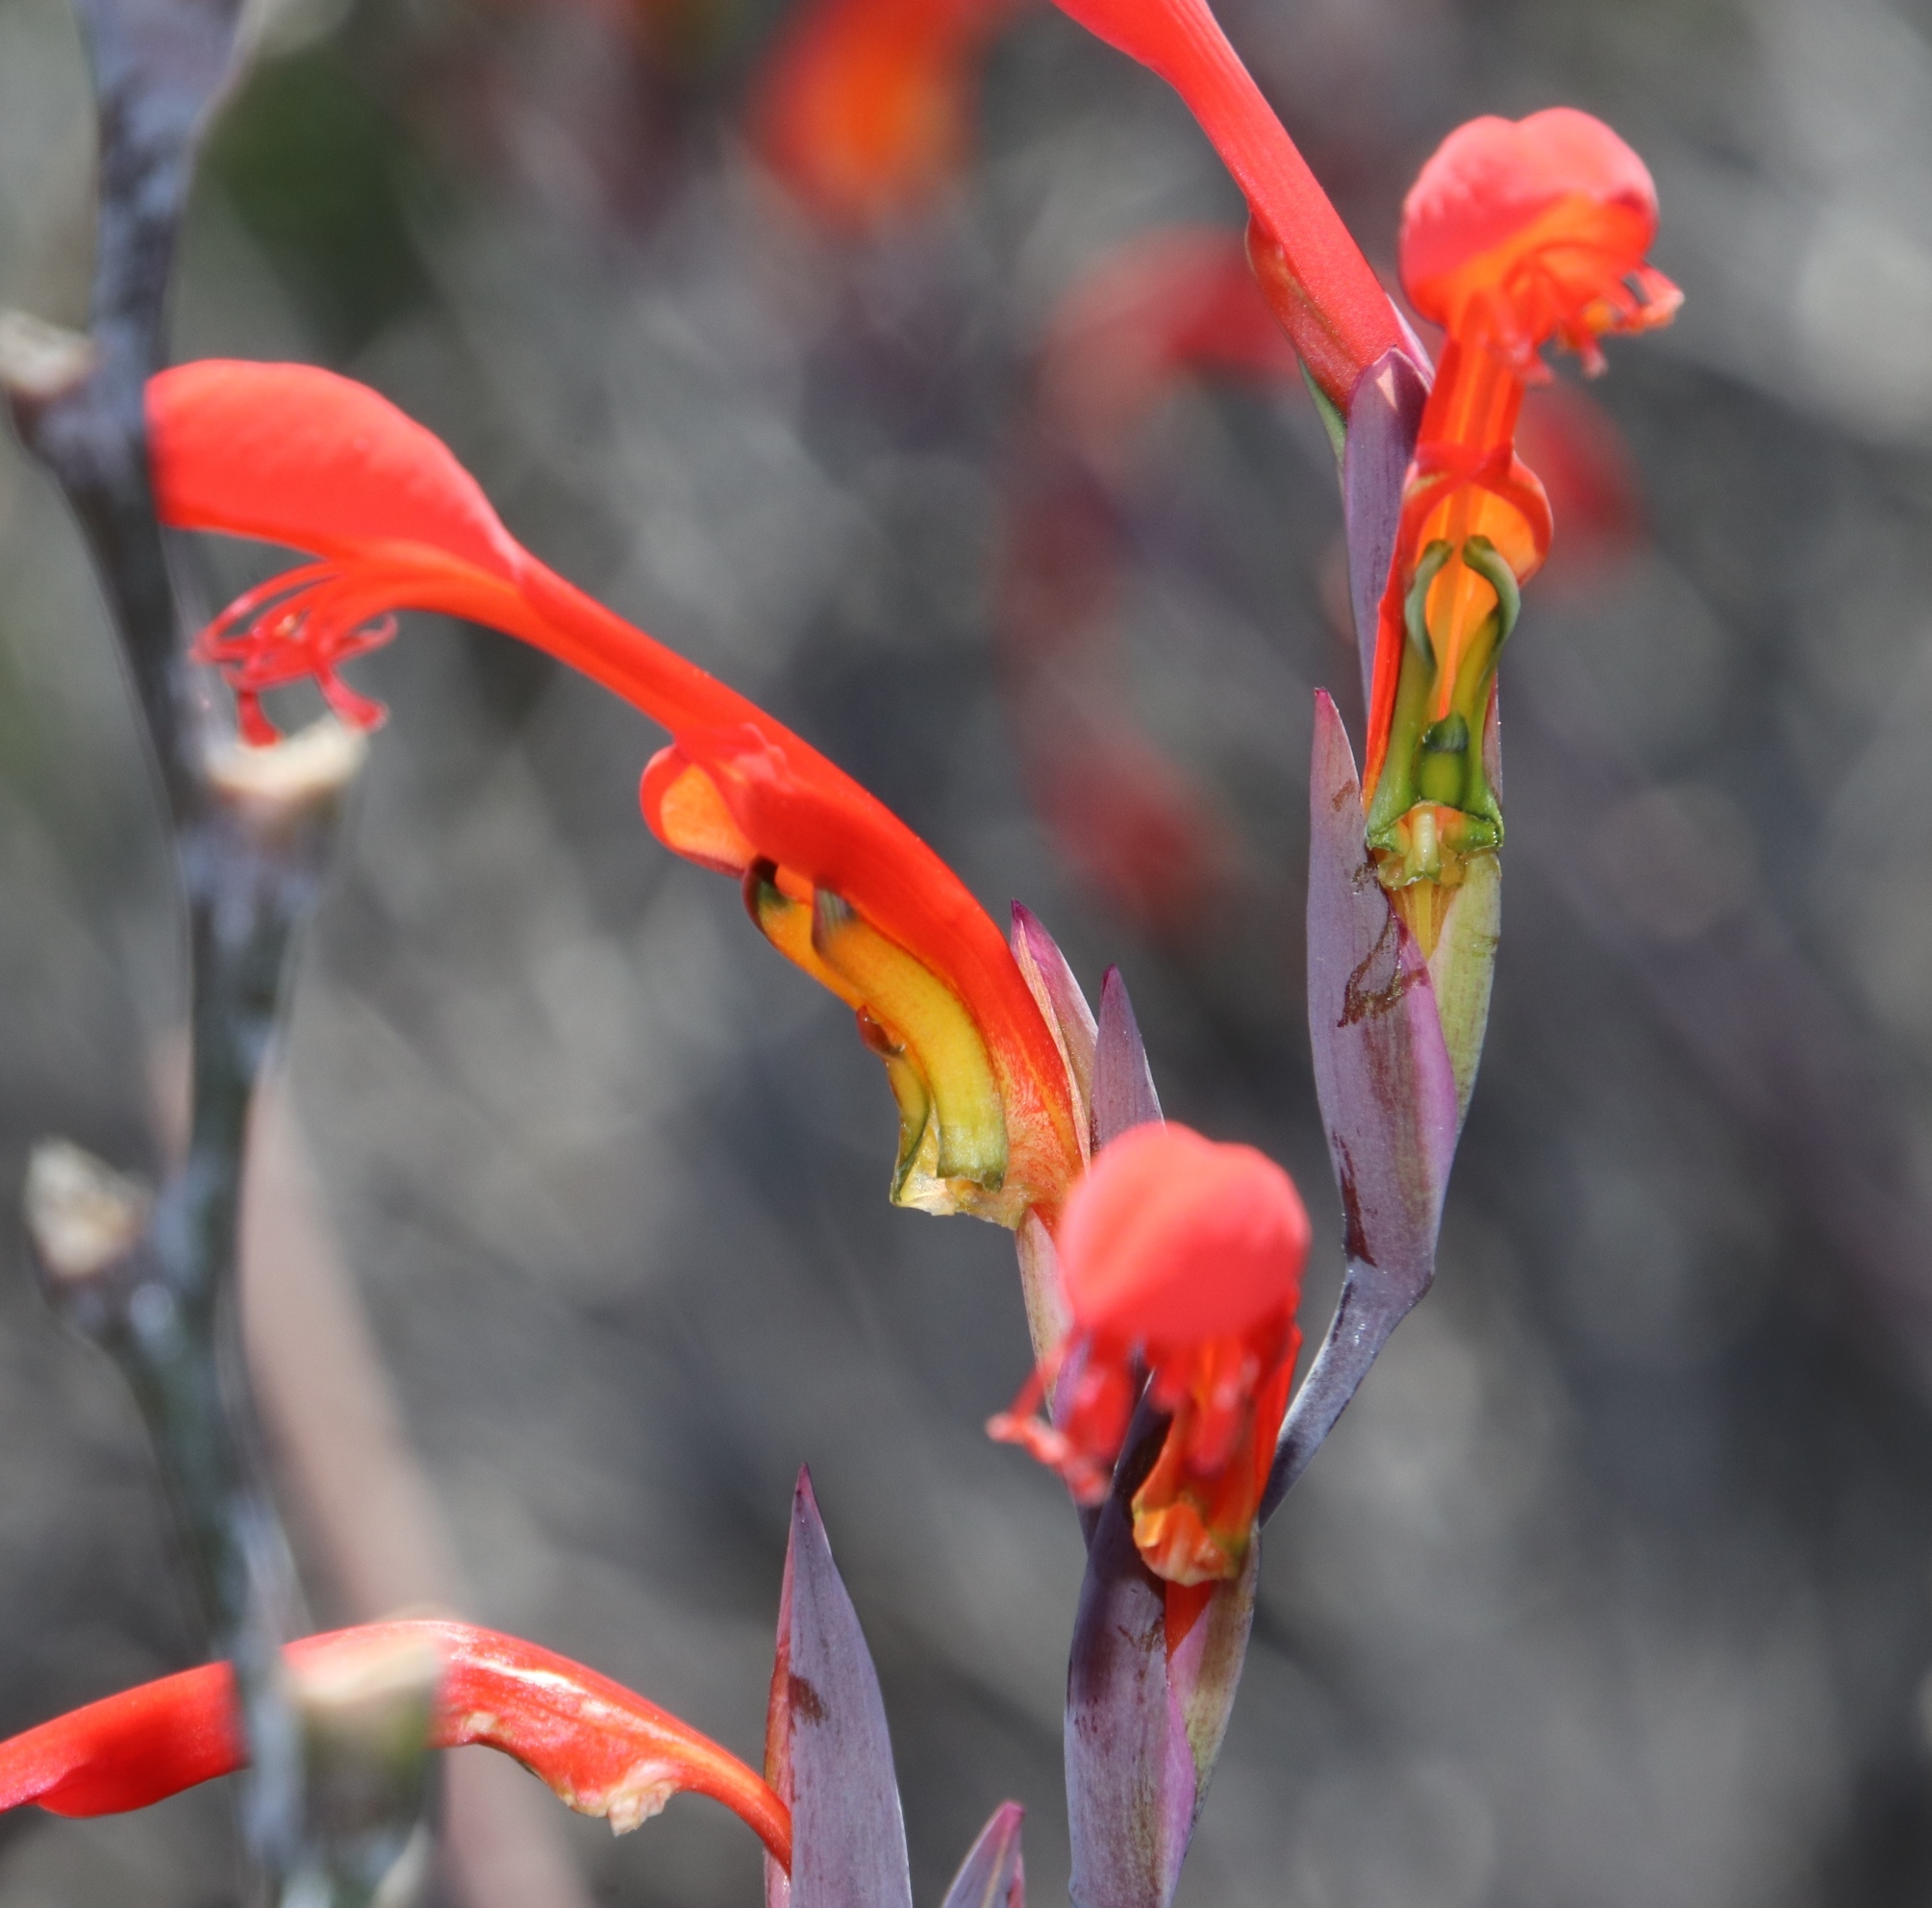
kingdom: Plantae
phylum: Tracheophyta
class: Liliopsida
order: Asparagales
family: Iridaceae
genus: Gladiolus
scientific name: Gladiolus saccatus
